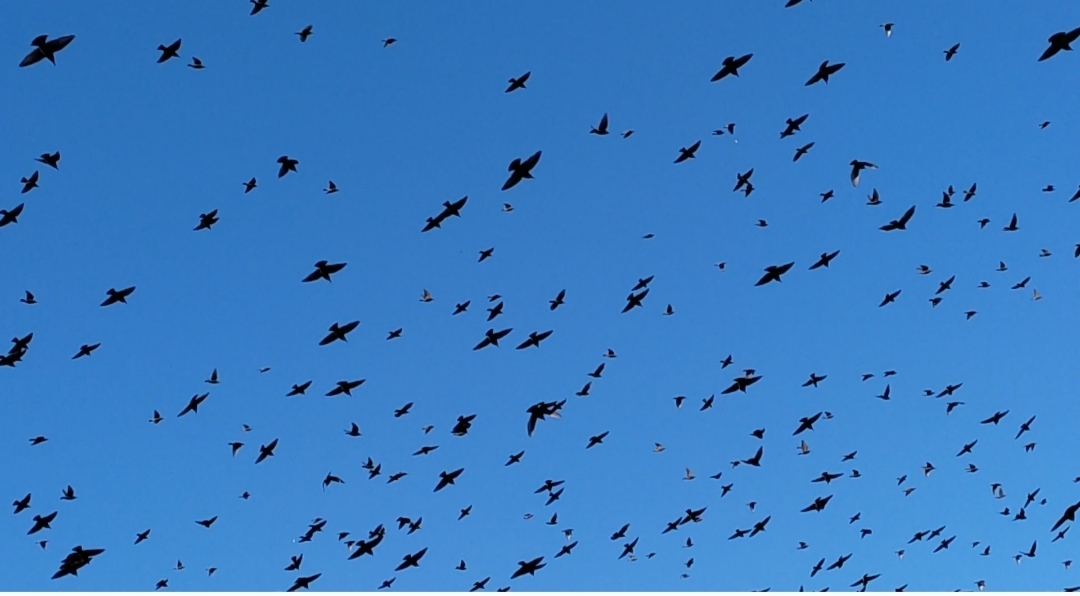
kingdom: Animalia
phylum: Chordata
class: Aves
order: Passeriformes
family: Sturnidae
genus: Sturnus
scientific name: Sturnus vulgaris
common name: Common starling
